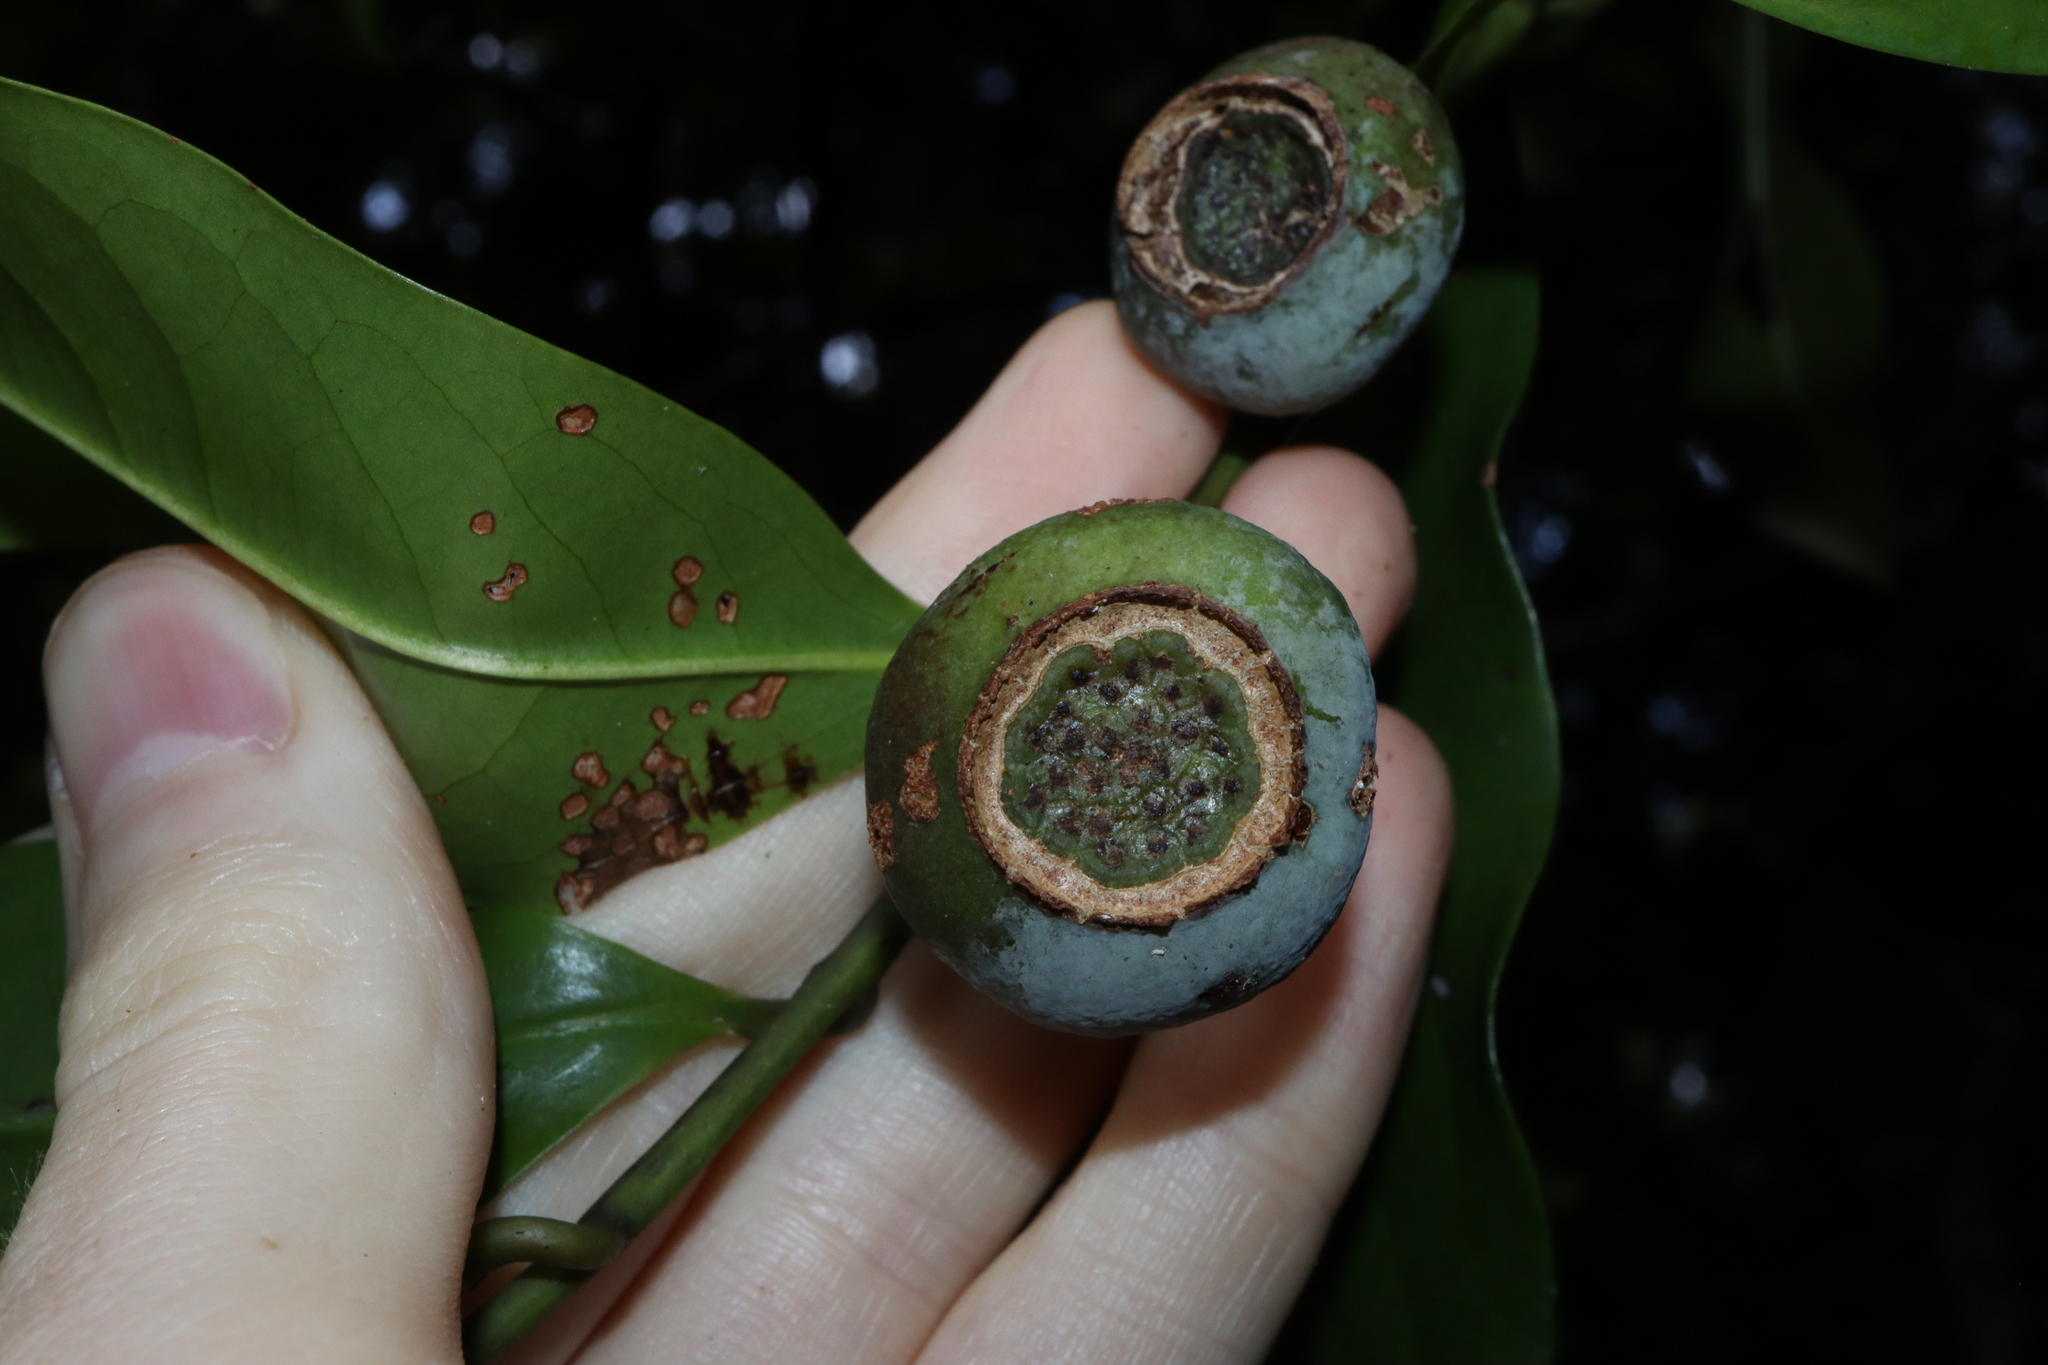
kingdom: Plantae
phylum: Tracheophyta
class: Magnoliopsida
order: Magnoliales
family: Eupomatiaceae
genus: Eupomatia
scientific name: Eupomatia laurina
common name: Bolwarra
